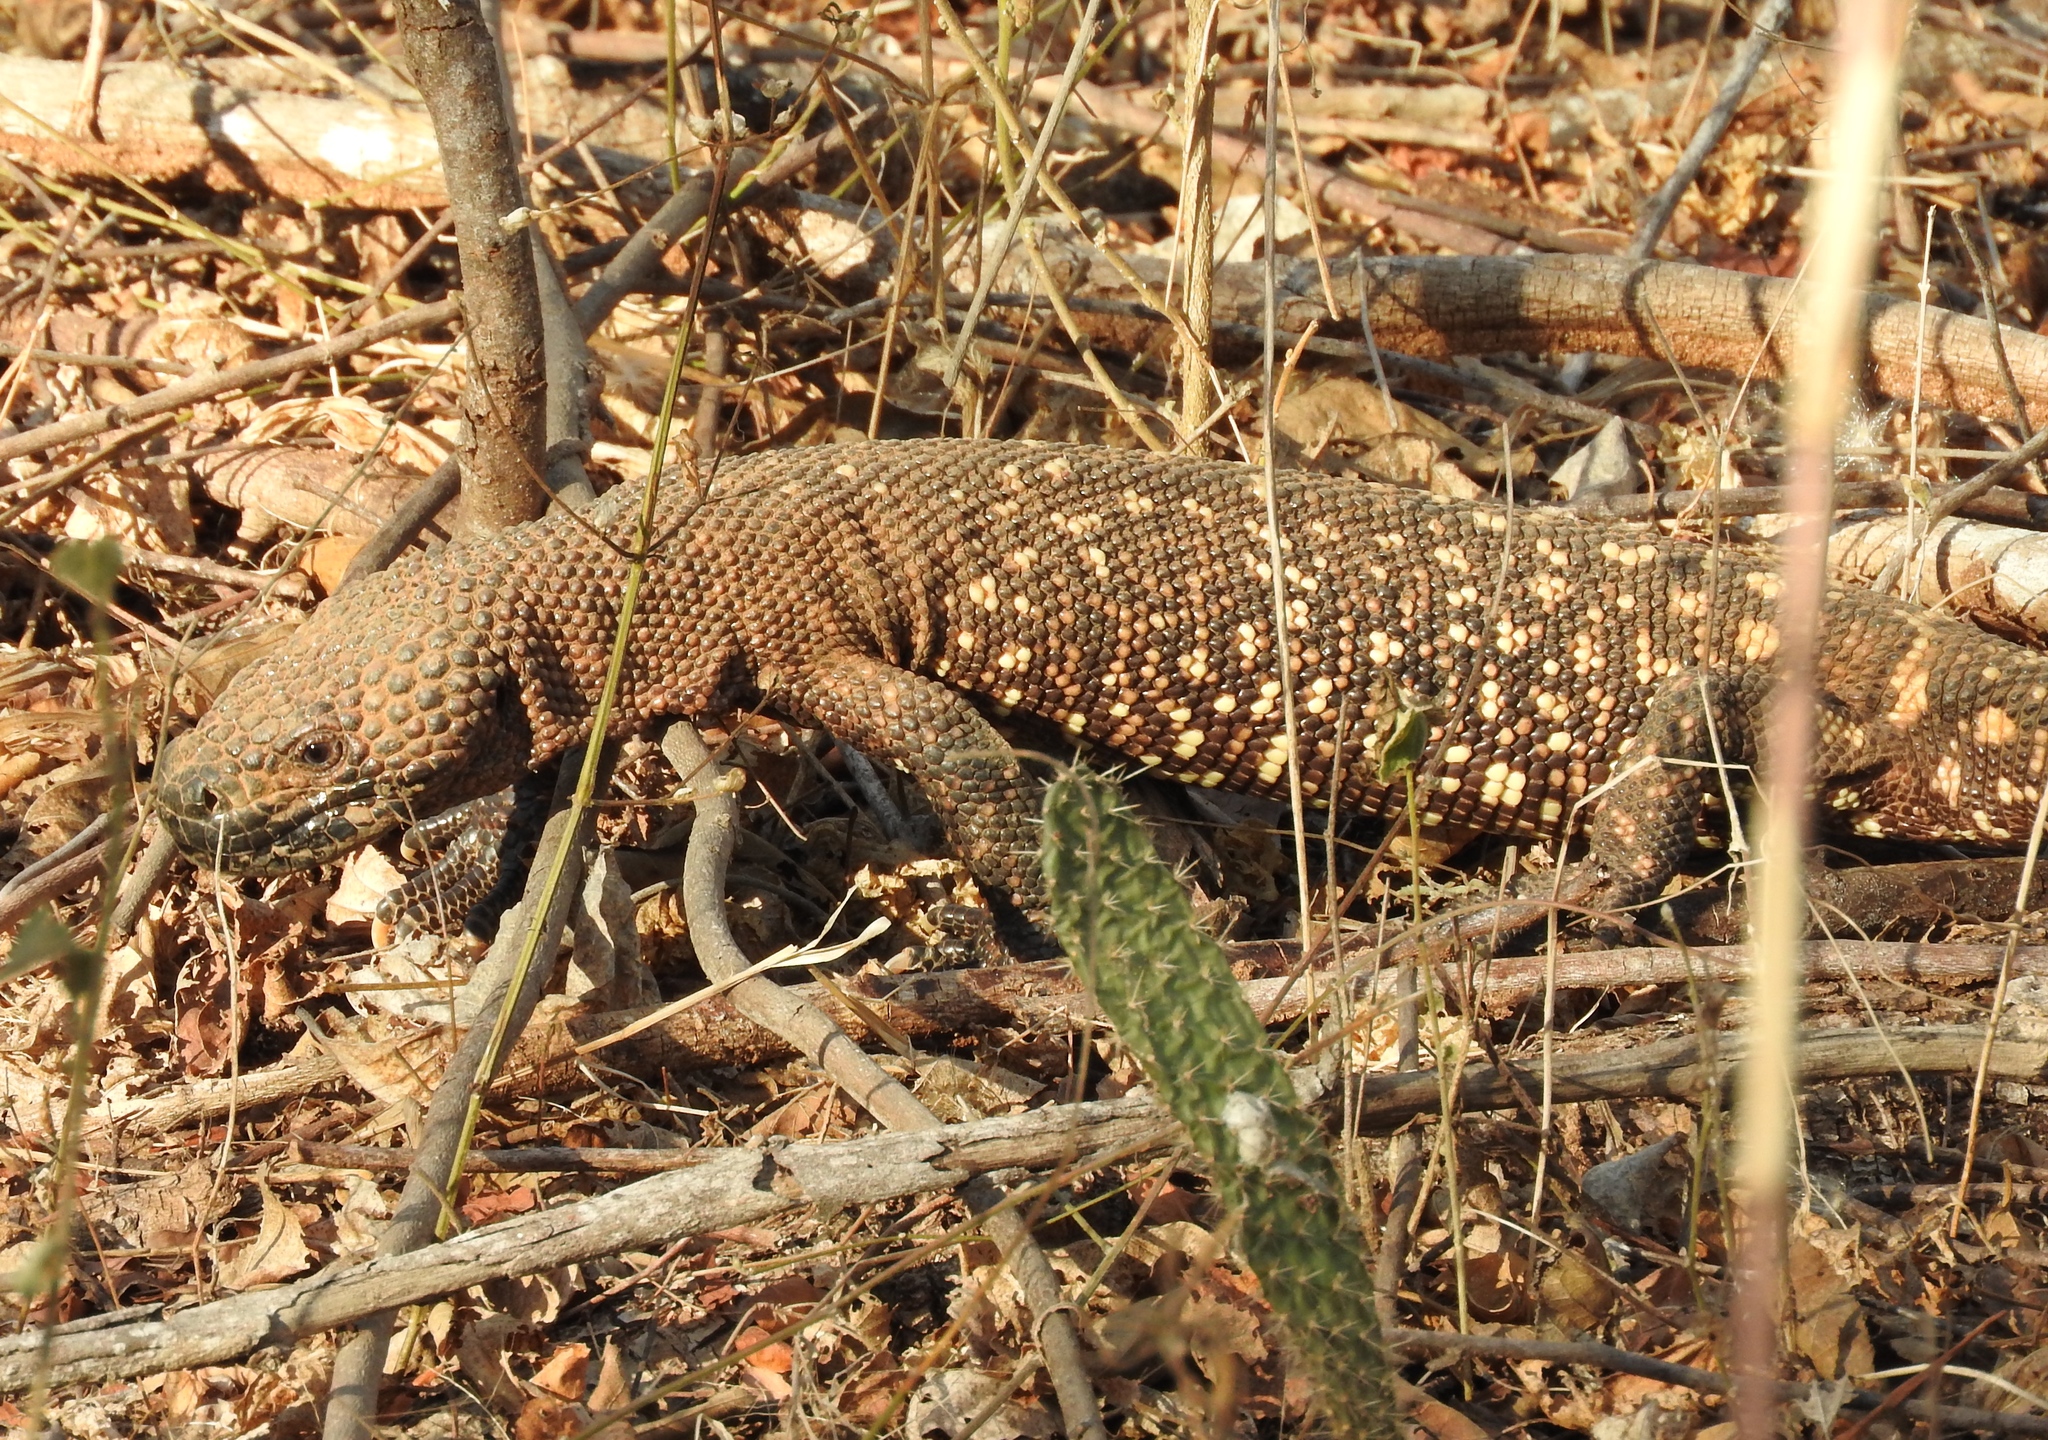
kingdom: Animalia
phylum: Chordata
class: Squamata
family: Helodermatidae
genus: Heloderma
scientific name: Heloderma horridum
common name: Mexican beaded lizard
